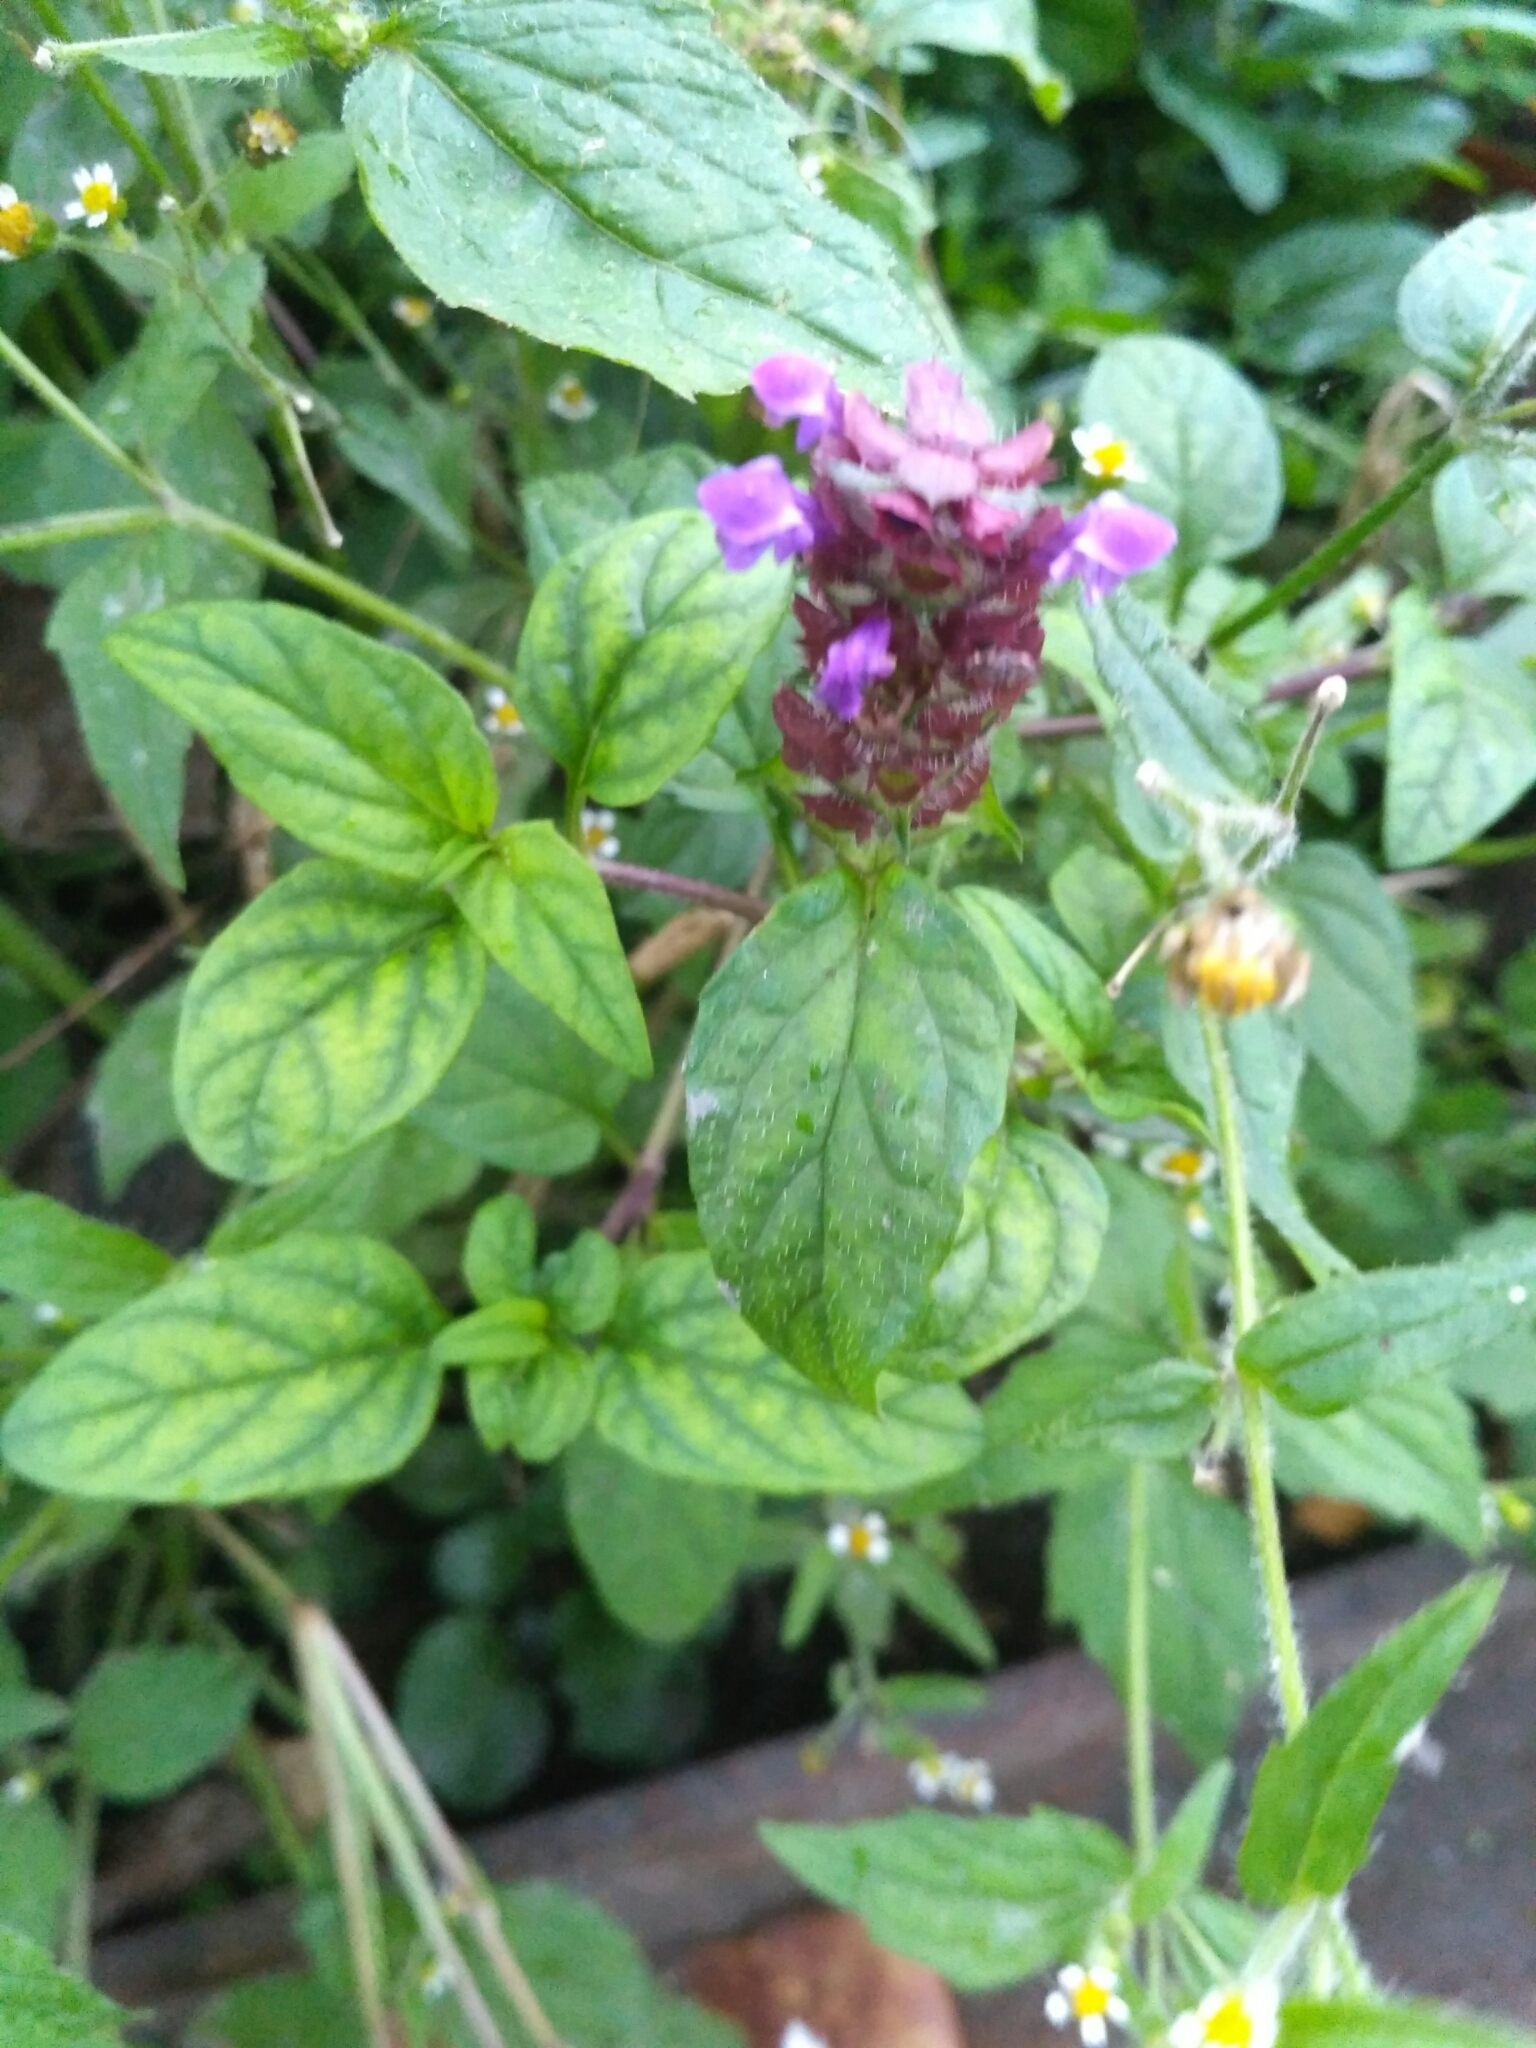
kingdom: Plantae
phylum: Tracheophyta
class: Magnoliopsida
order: Lamiales
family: Lamiaceae
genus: Prunella
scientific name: Prunella vulgaris
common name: Heal-all
